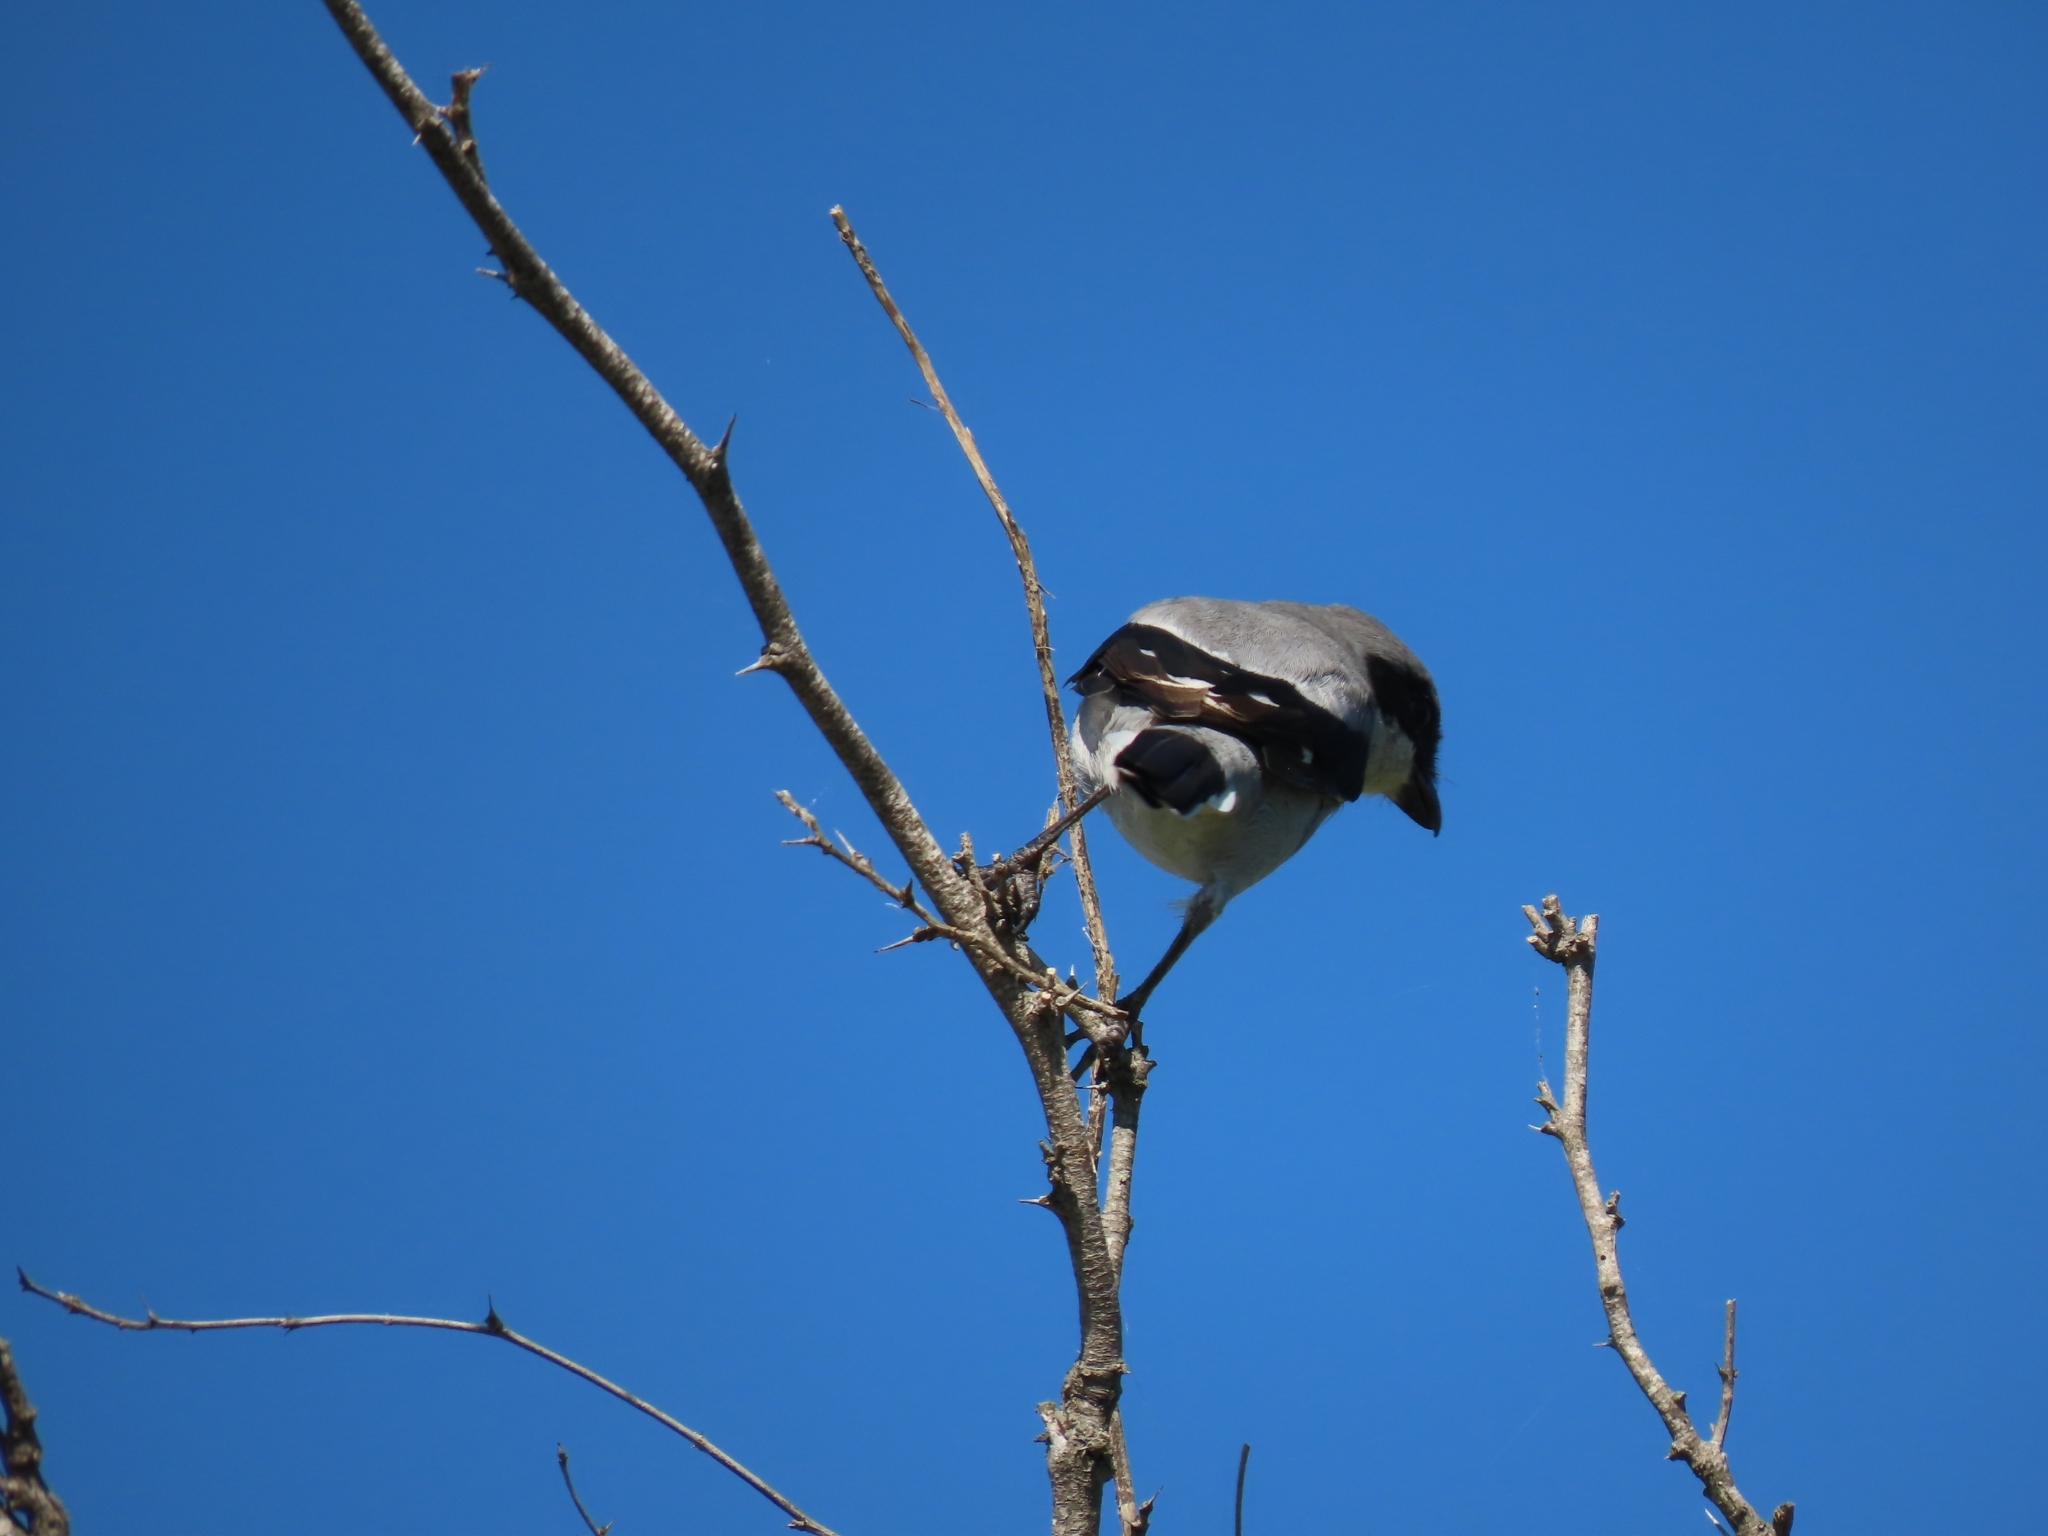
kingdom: Animalia
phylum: Chordata
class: Aves
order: Passeriformes
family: Laniidae
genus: Lanius
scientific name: Lanius ludovicianus
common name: Loggerhead shrike
